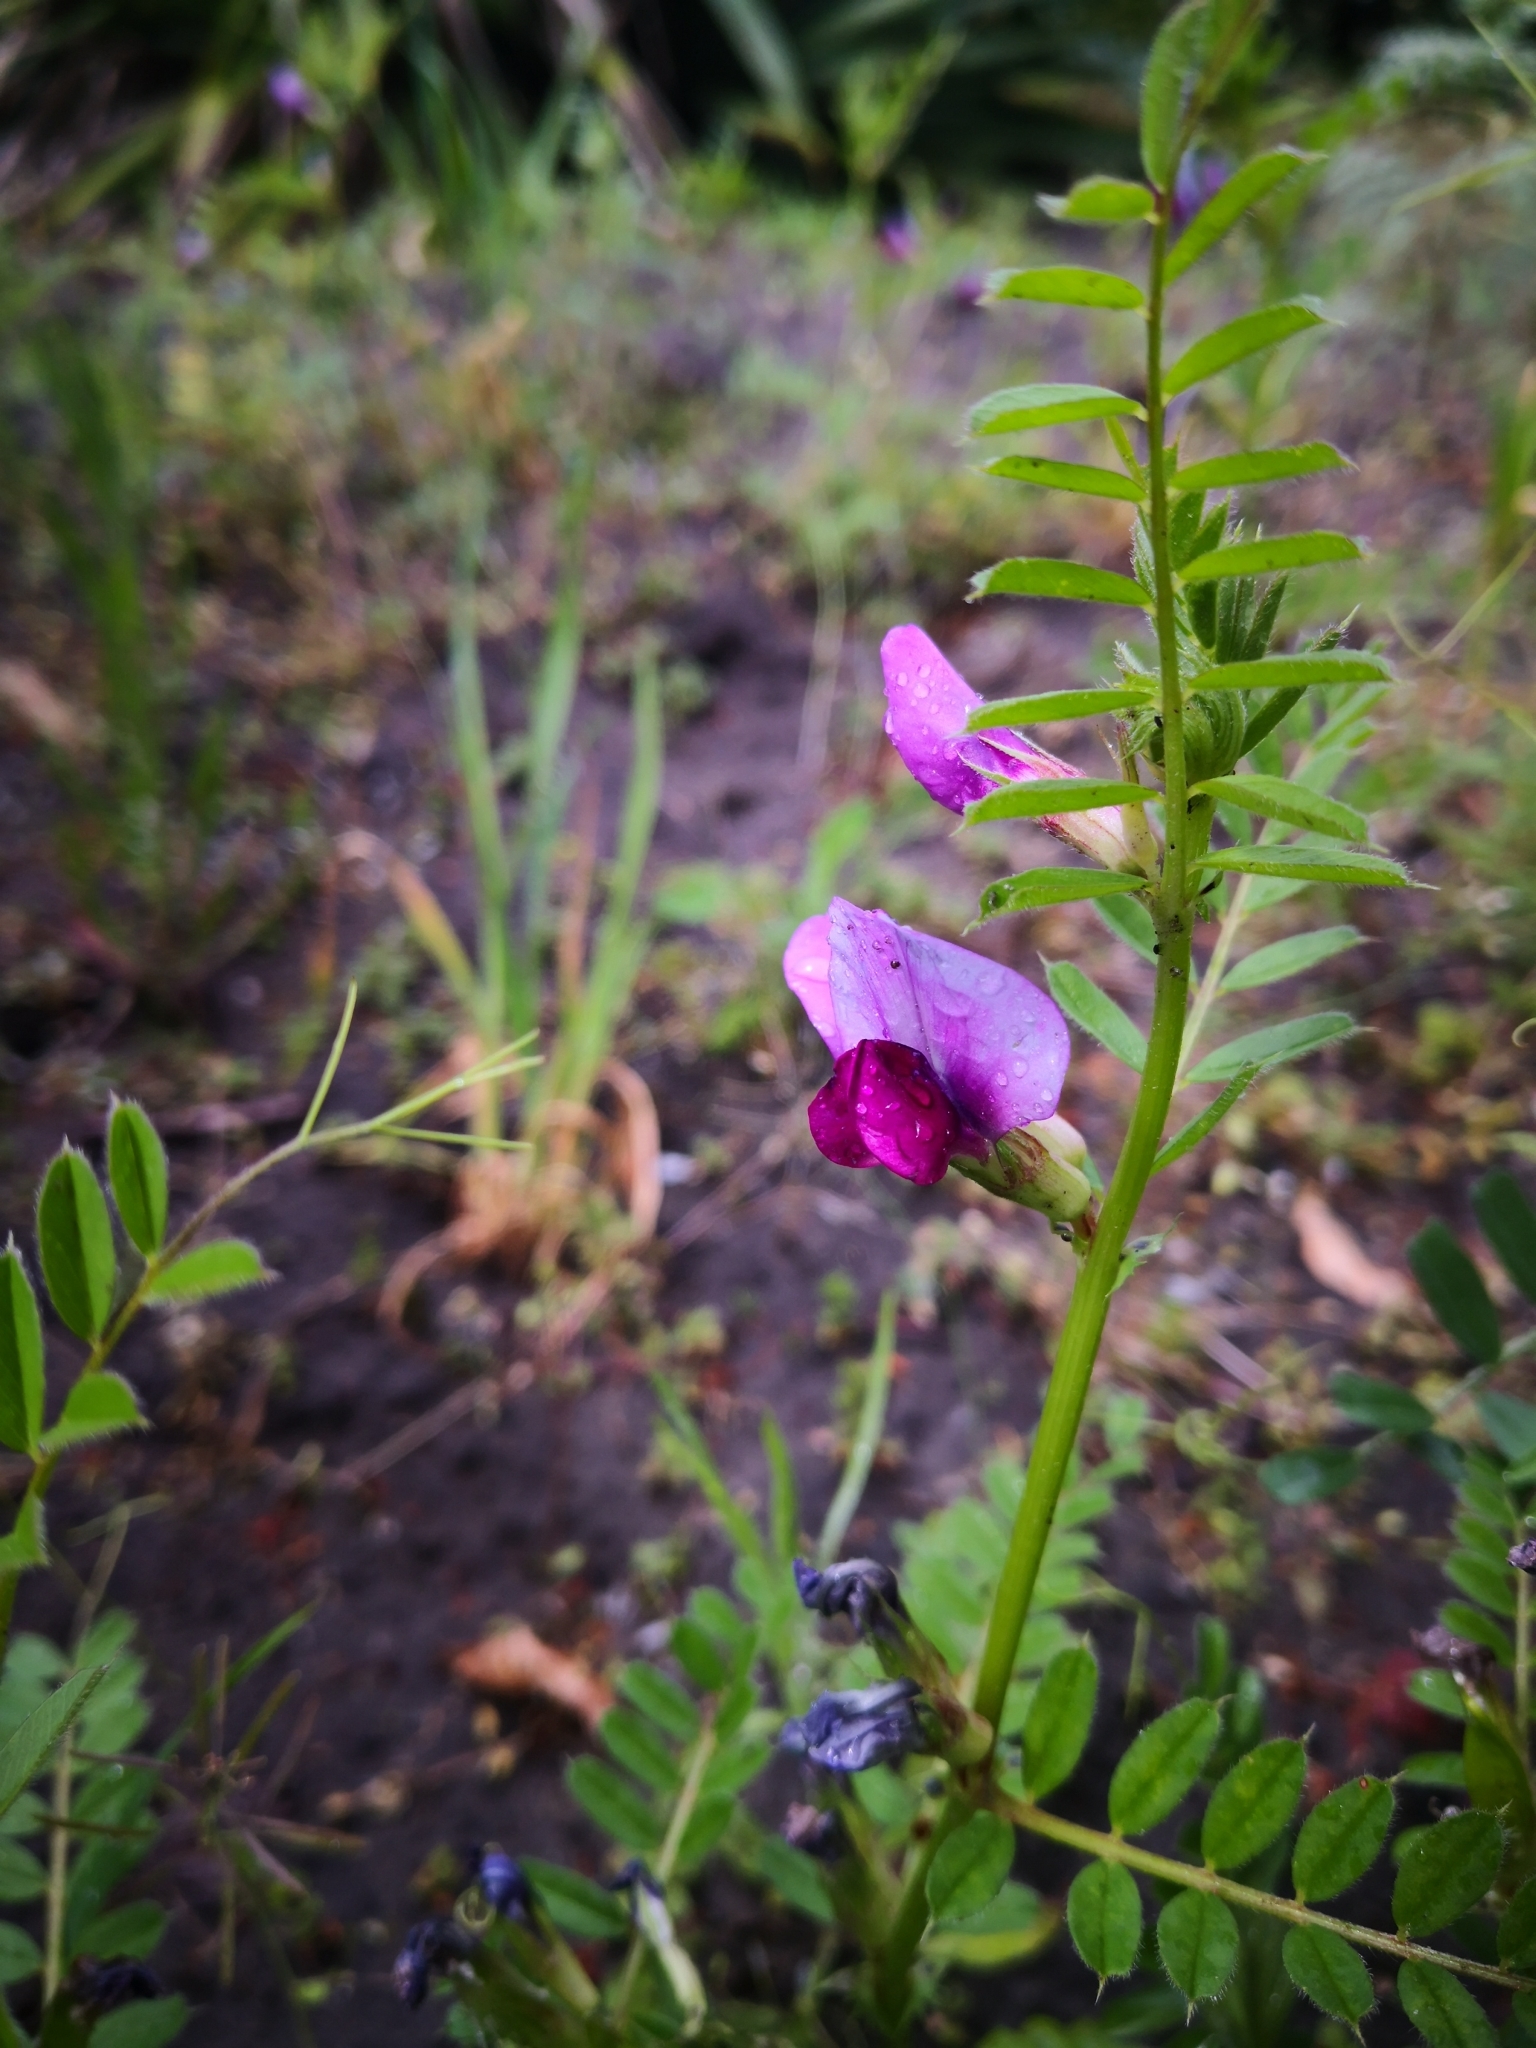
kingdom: Plantae
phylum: Tracheophyta
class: Magnoliopsida
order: Fabales
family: Fabaceae
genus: Vicia
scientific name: Vicia sativa
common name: Garden vetch
